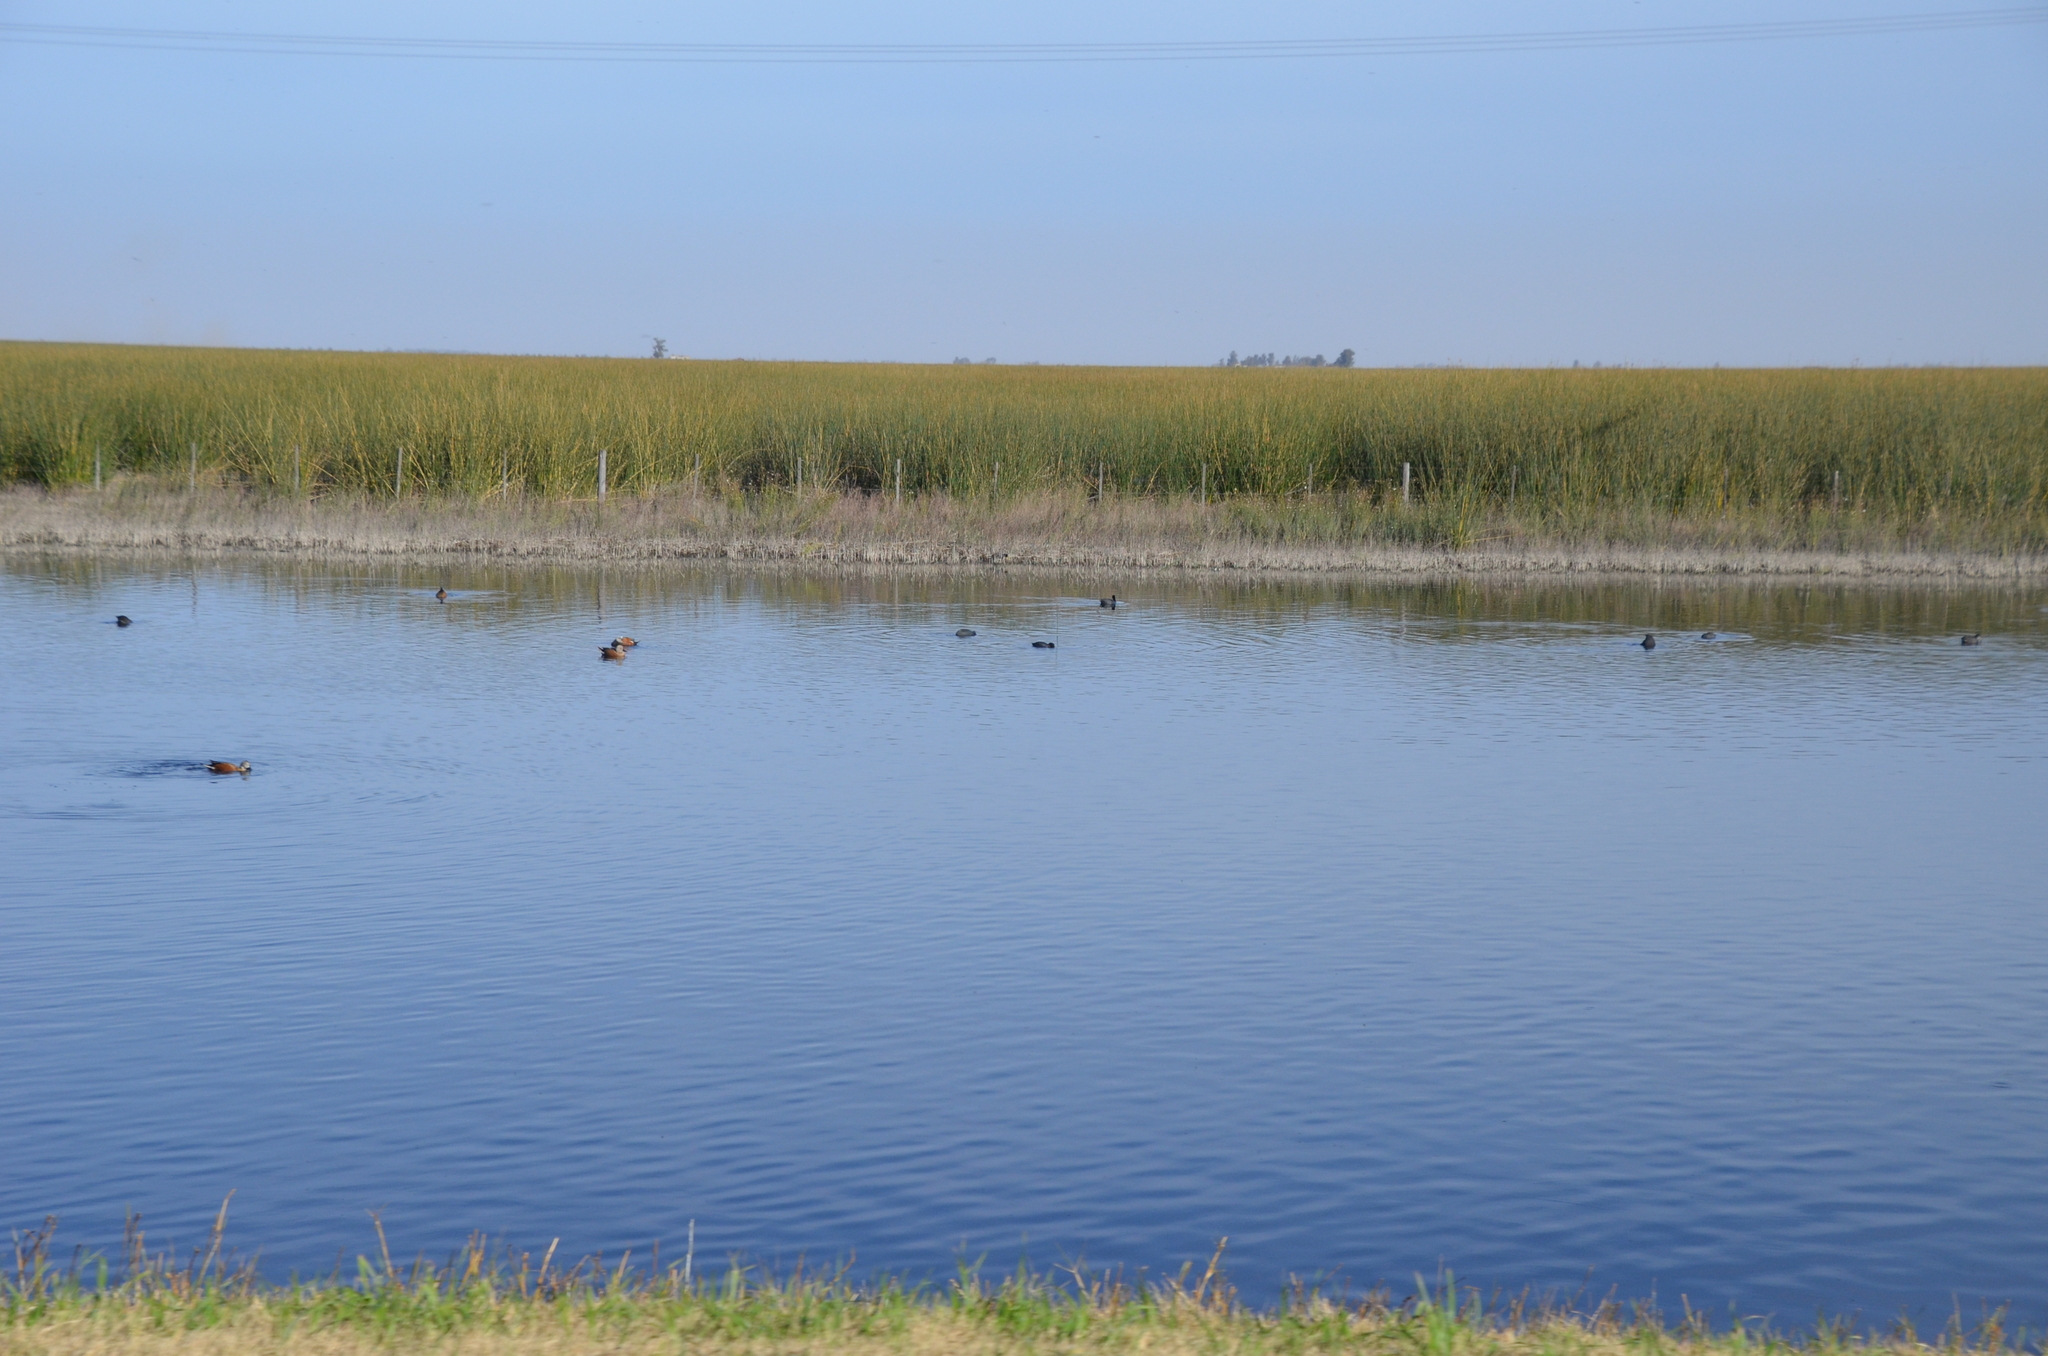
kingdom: Animalia
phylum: Chordata
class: Aves
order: Anseriformes
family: Anatidae
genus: Spatula
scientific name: Spatula platalea
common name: Red shoveler
